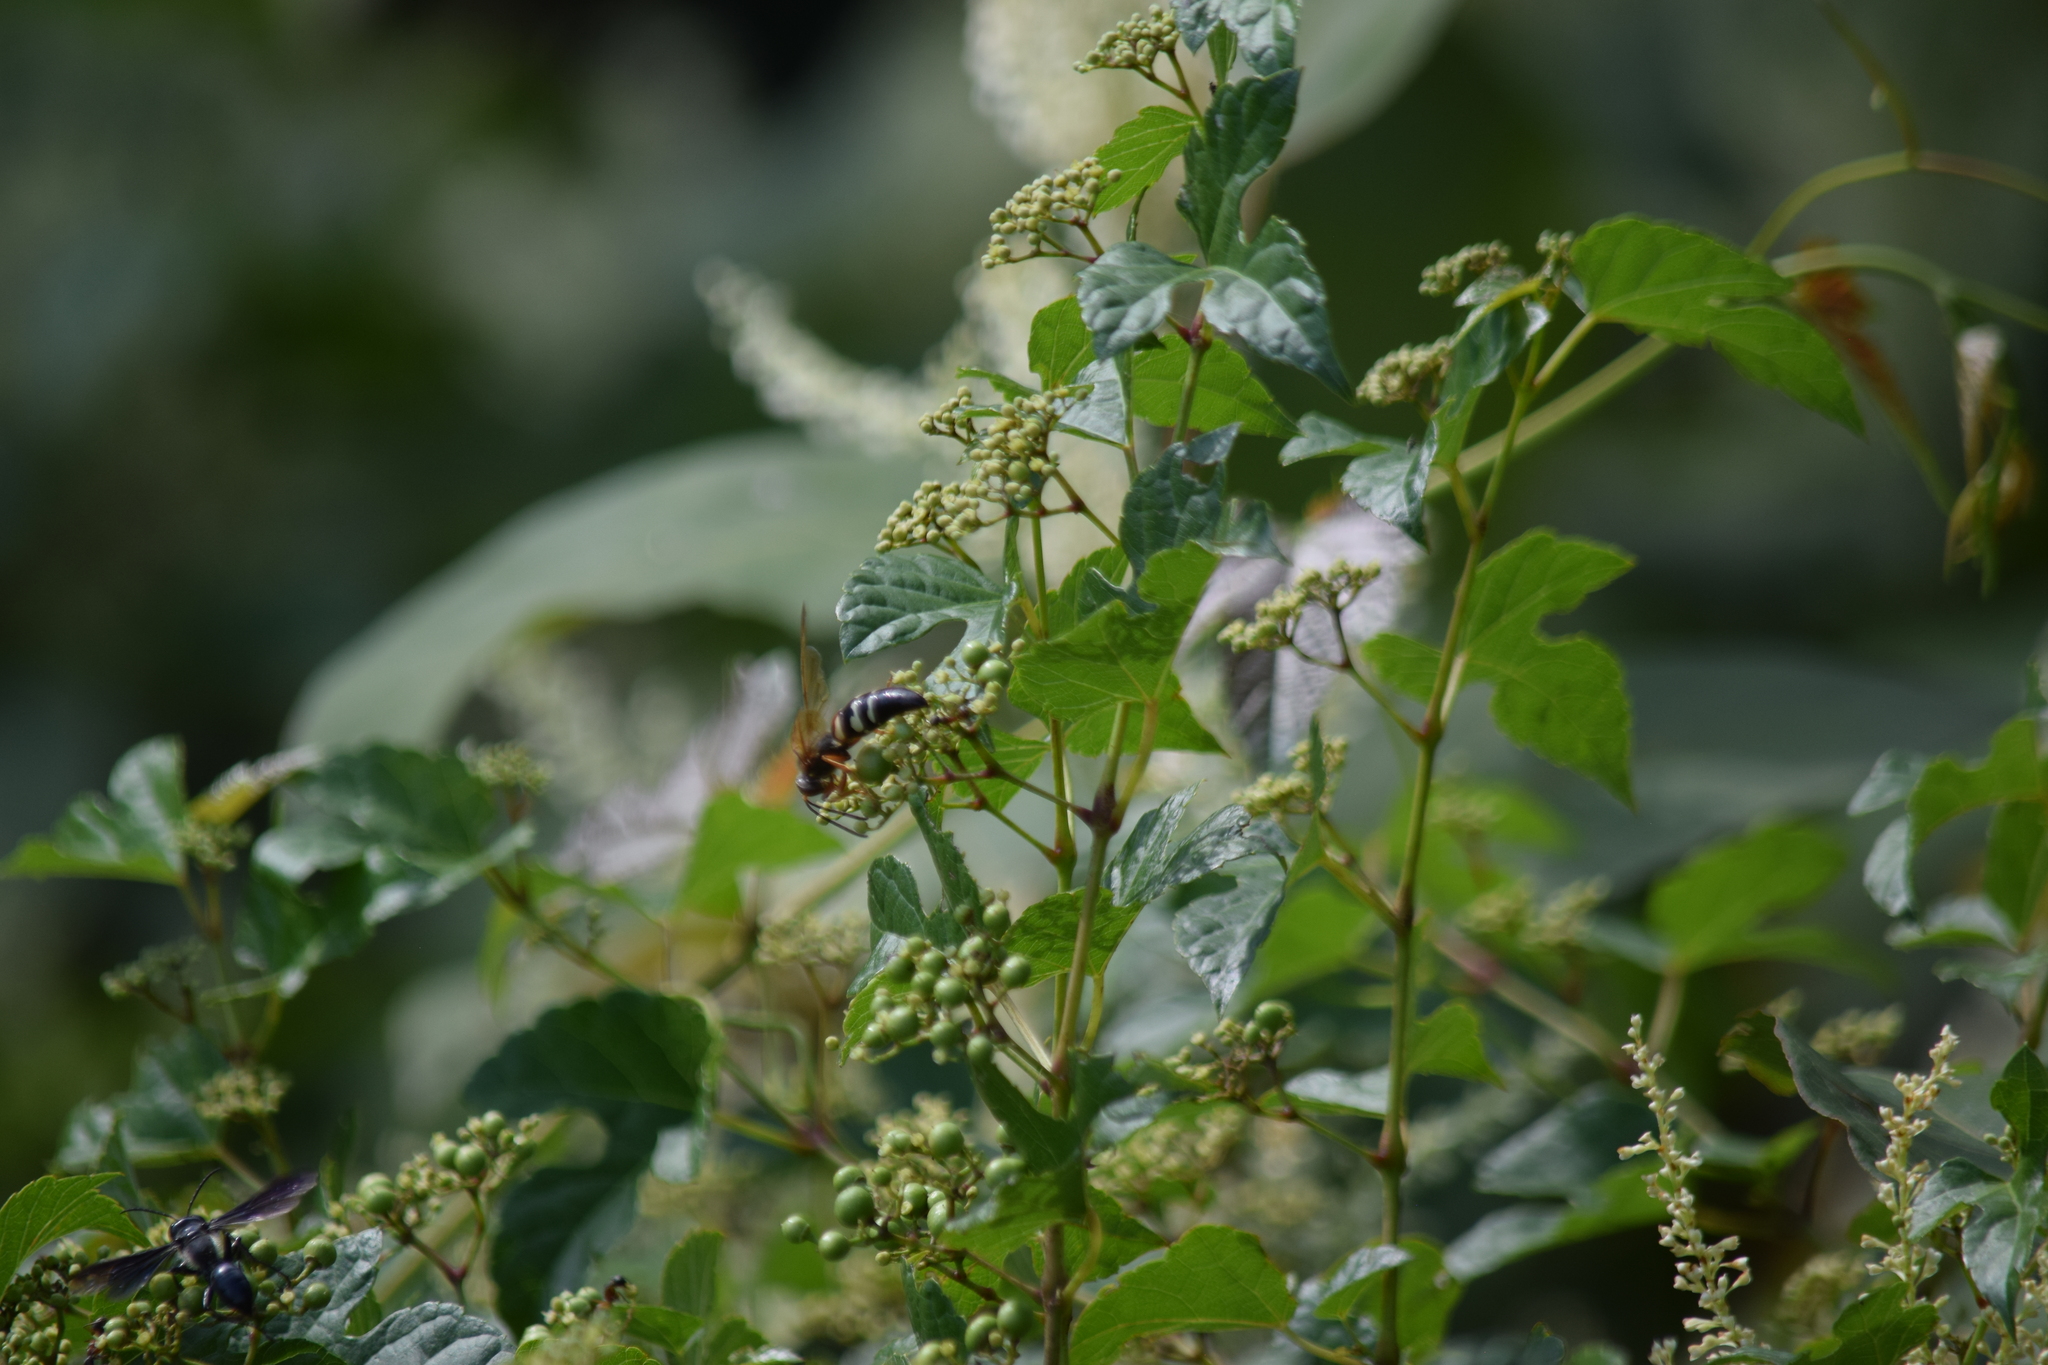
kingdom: Animalia
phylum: Arthropoda
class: Insecta
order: Hymenoptera
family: Crabronidae
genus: Sphecius
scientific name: Sphecius speciosus
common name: Cicada killer
